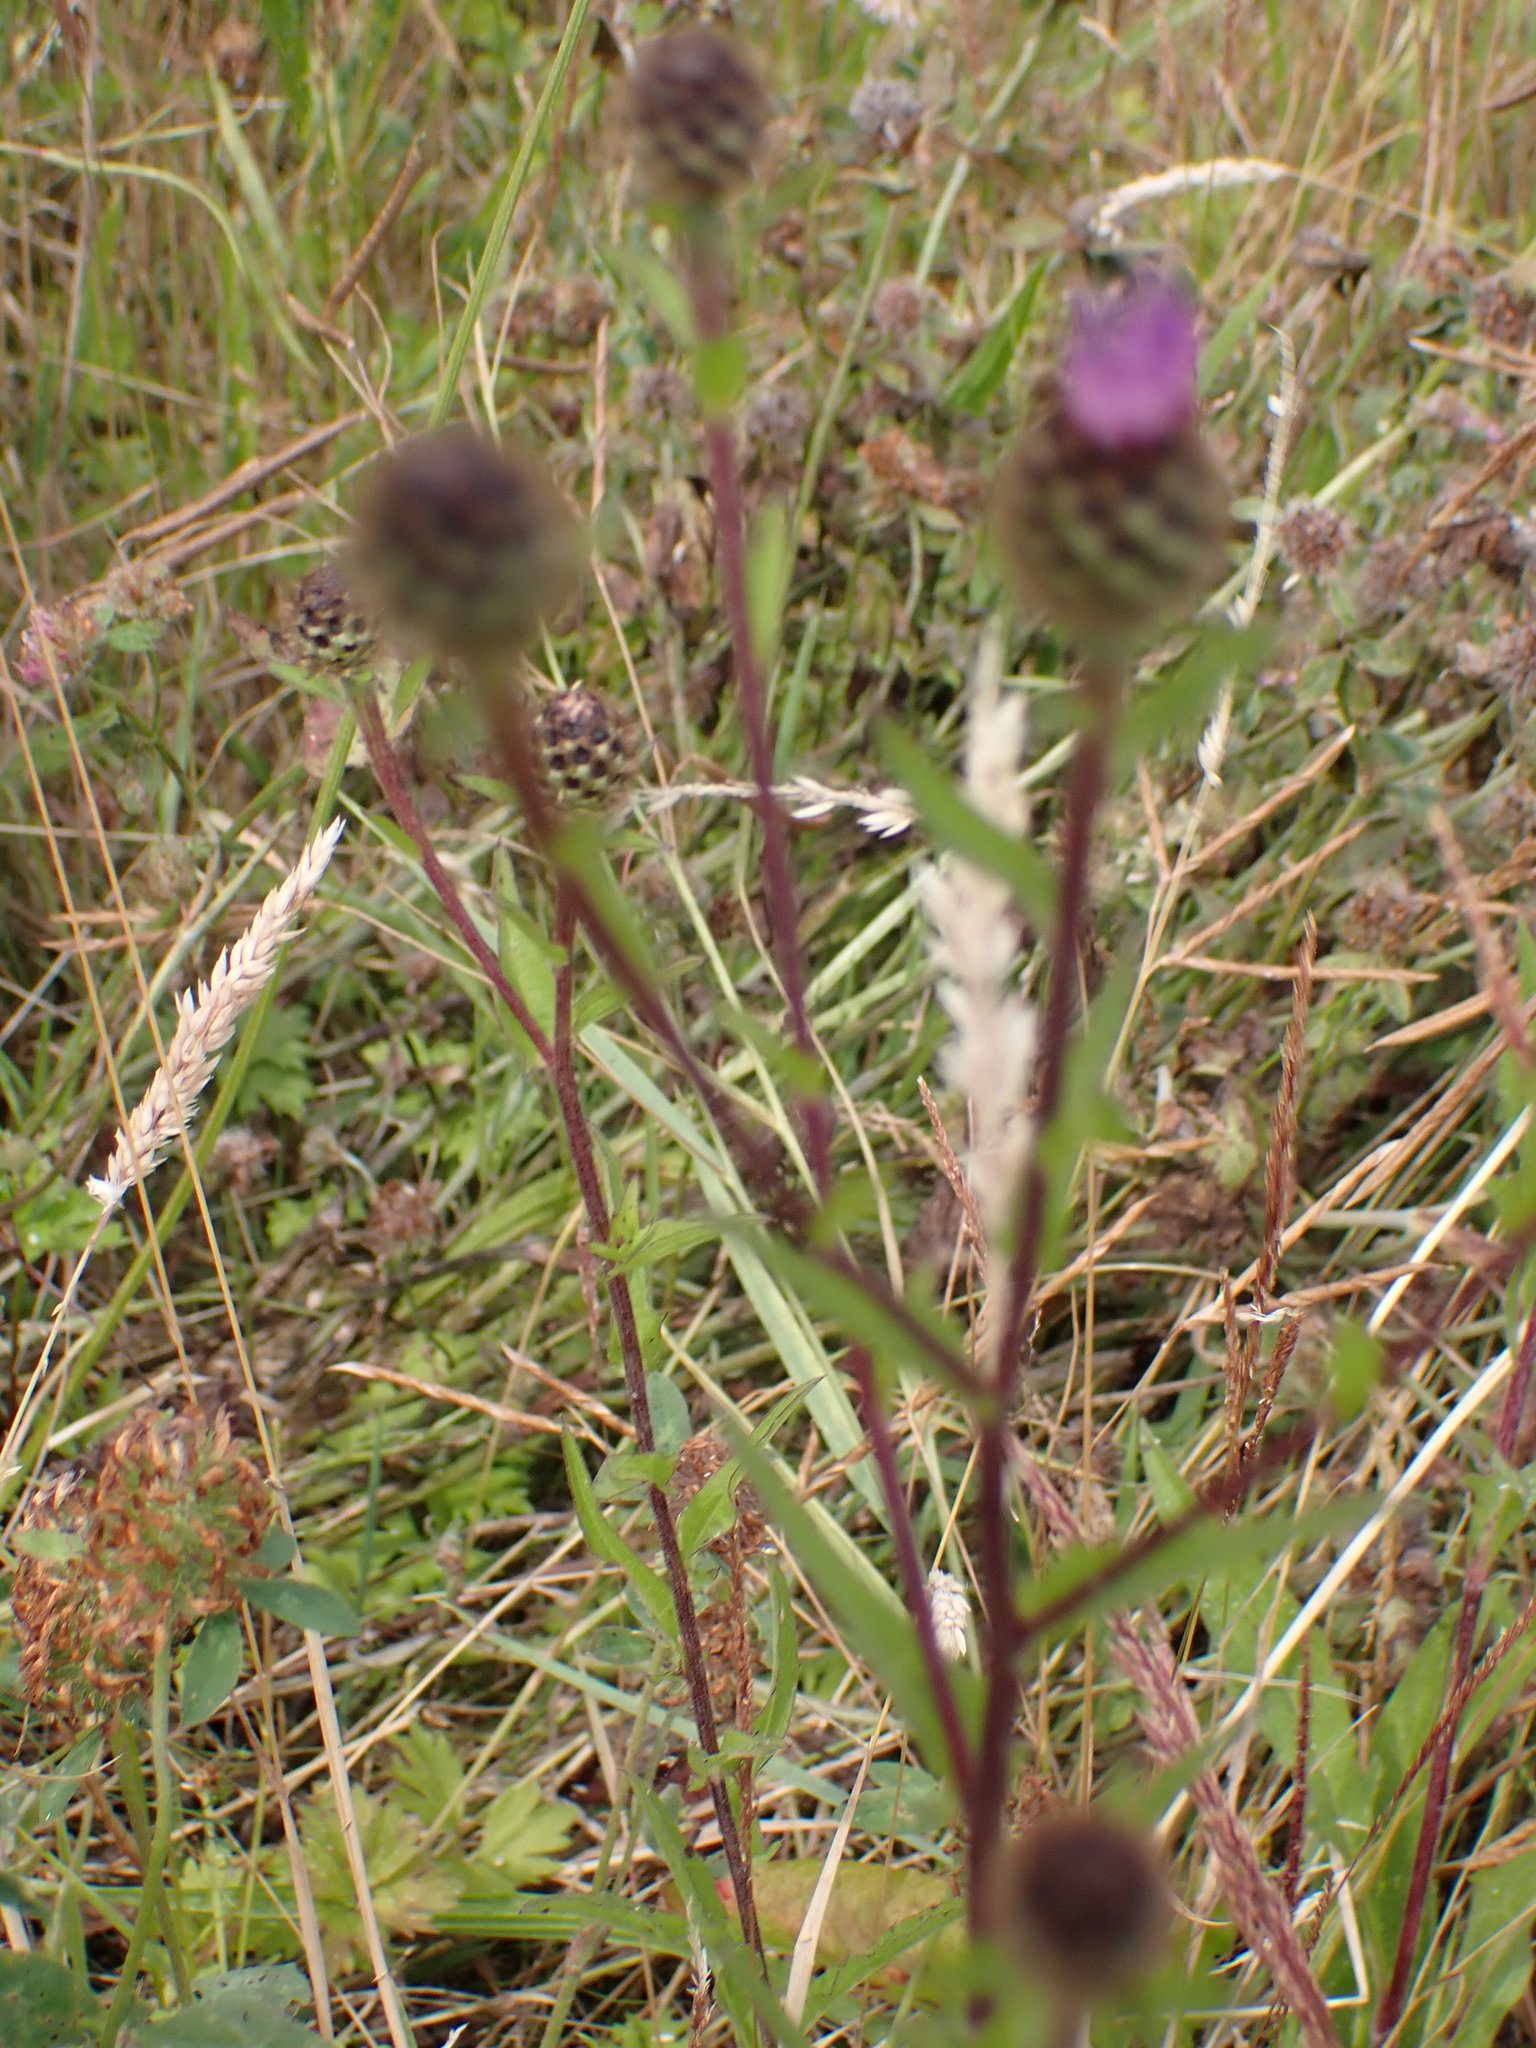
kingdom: Plantae
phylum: Tracheophyta
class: Magnoliopsida
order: Asterales
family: Asteraceae
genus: Centaurea
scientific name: Centaurea nigra
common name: Lesser knapweed
